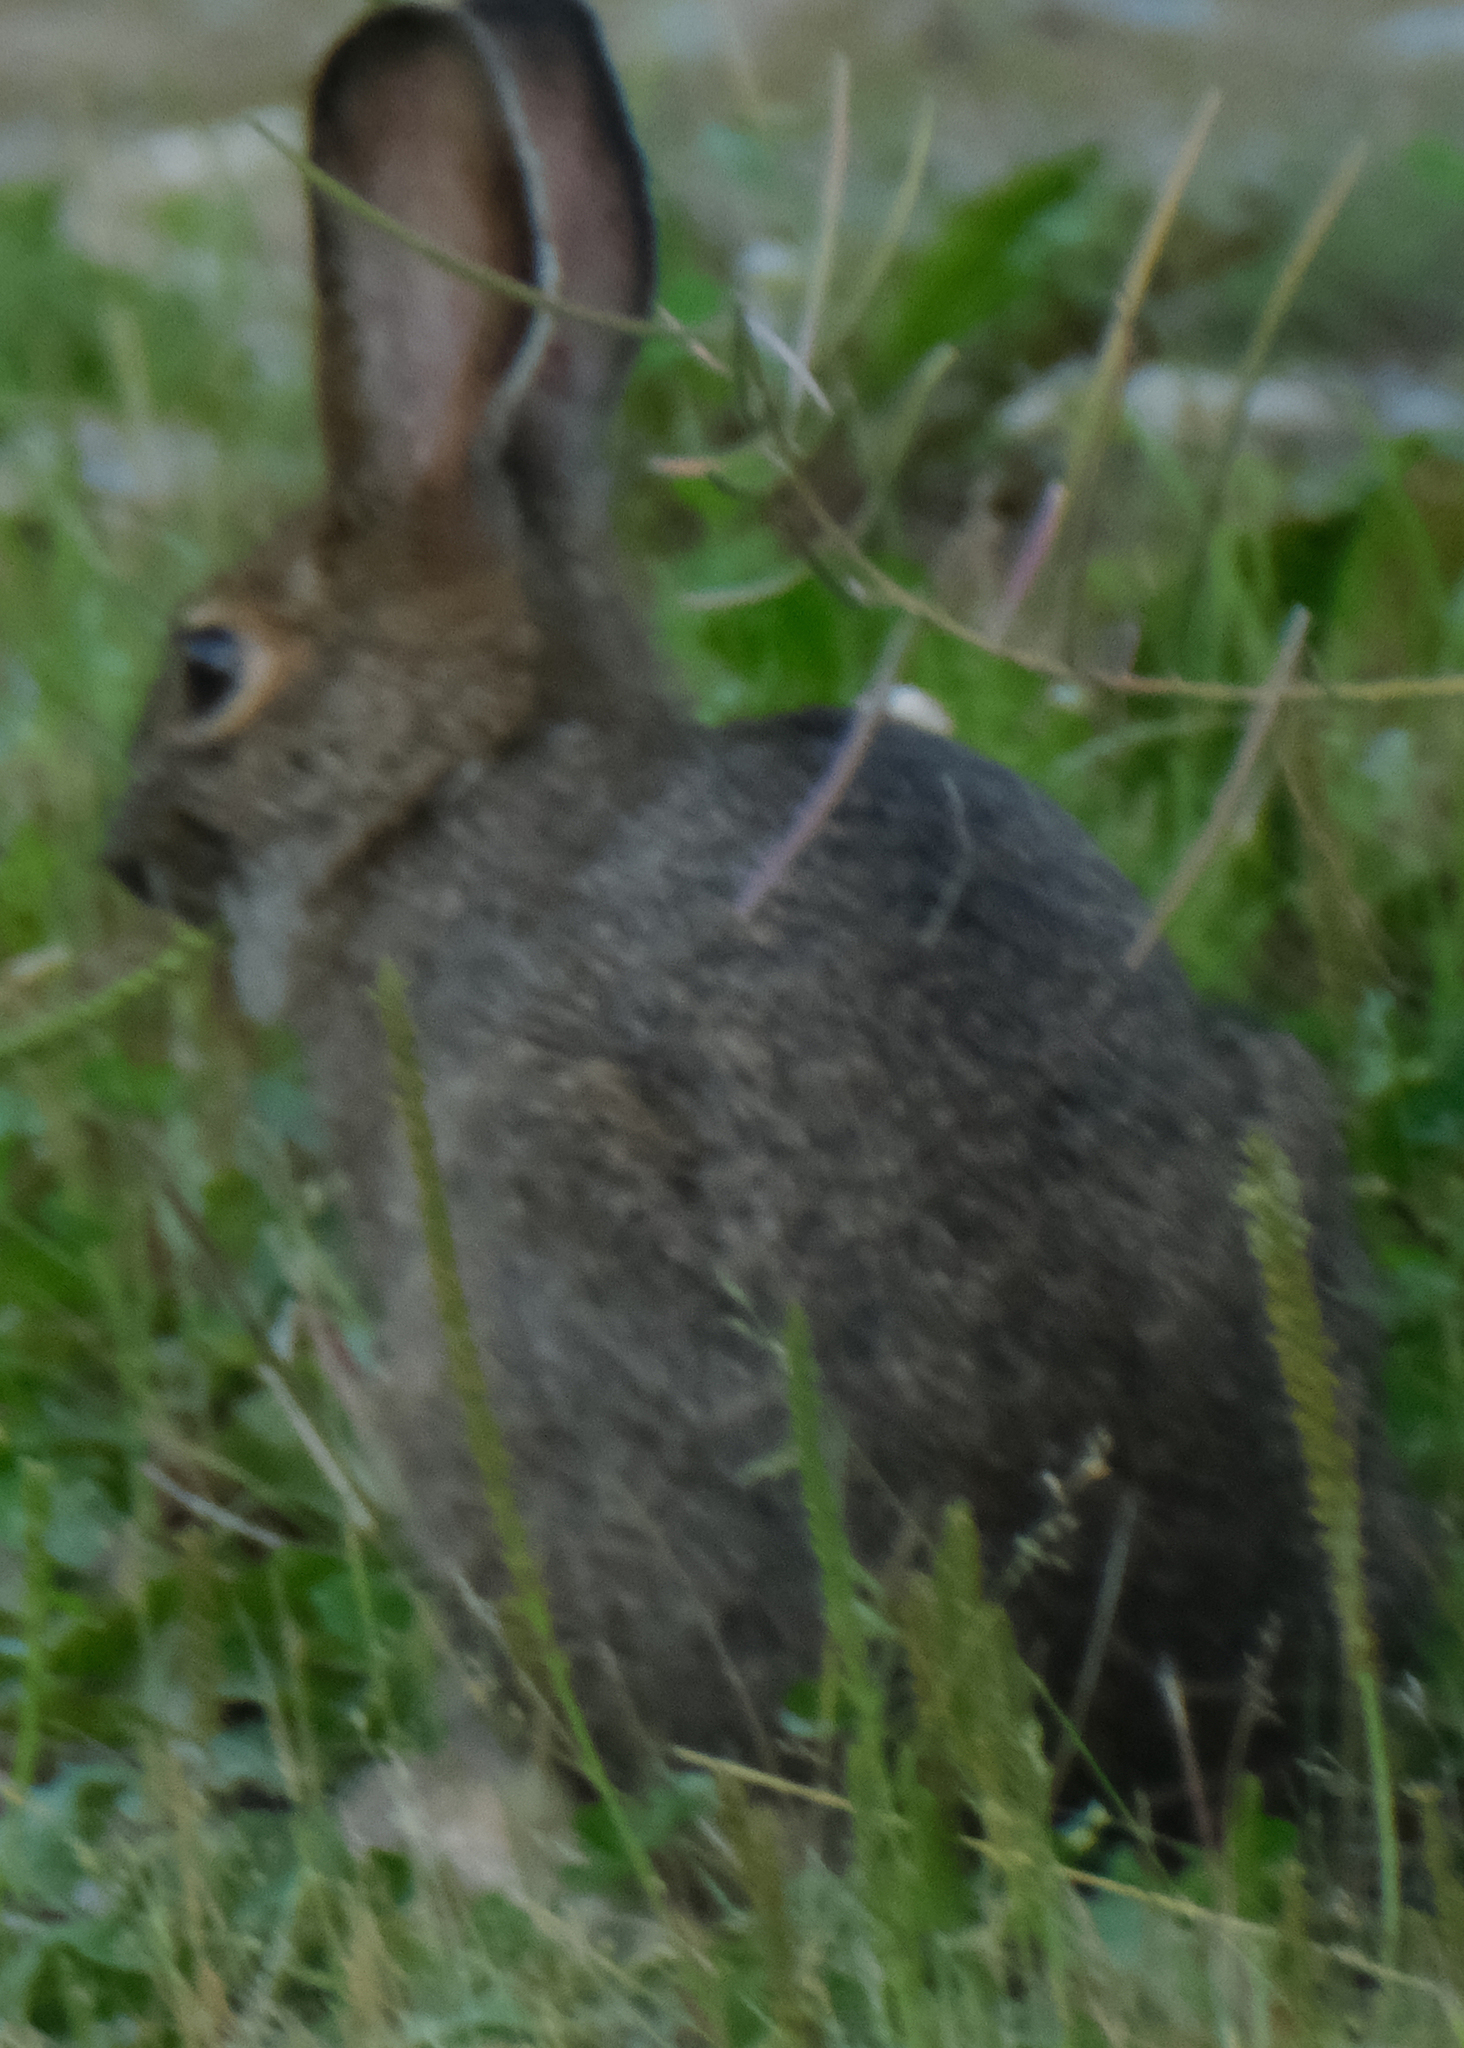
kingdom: Animalia
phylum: Chordata
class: Mammalia
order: Lagomorpha
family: Leporidae
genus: Lepus
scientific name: Lepus americanus
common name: Snowshoe hare
